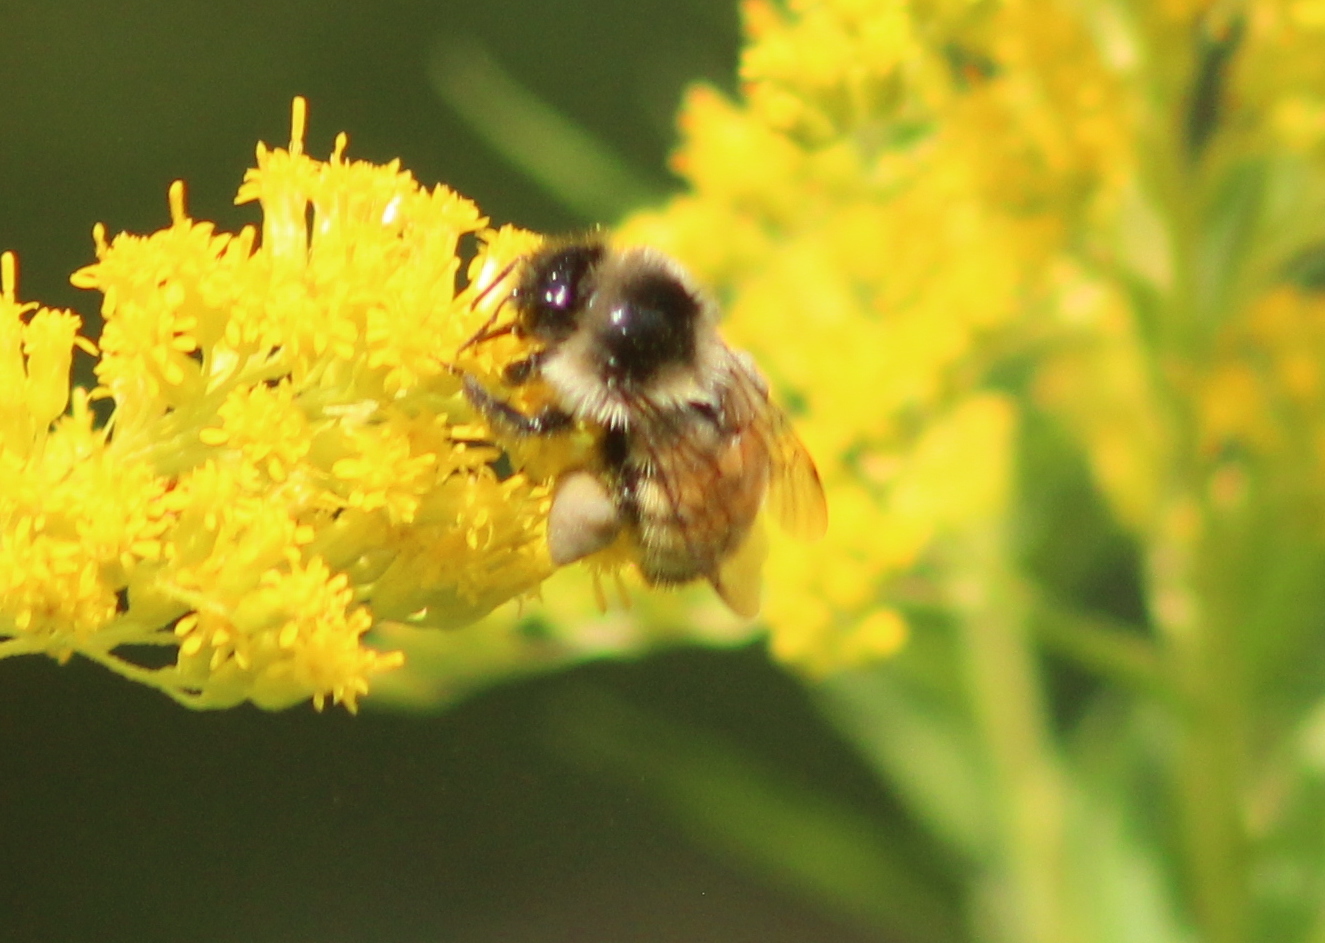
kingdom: Animalia
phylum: Arthropoda
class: Insecta
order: Hymenoptera
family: Apidae
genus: Bombus
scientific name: Bombus ternarius
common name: Tri-colored bumble bee
